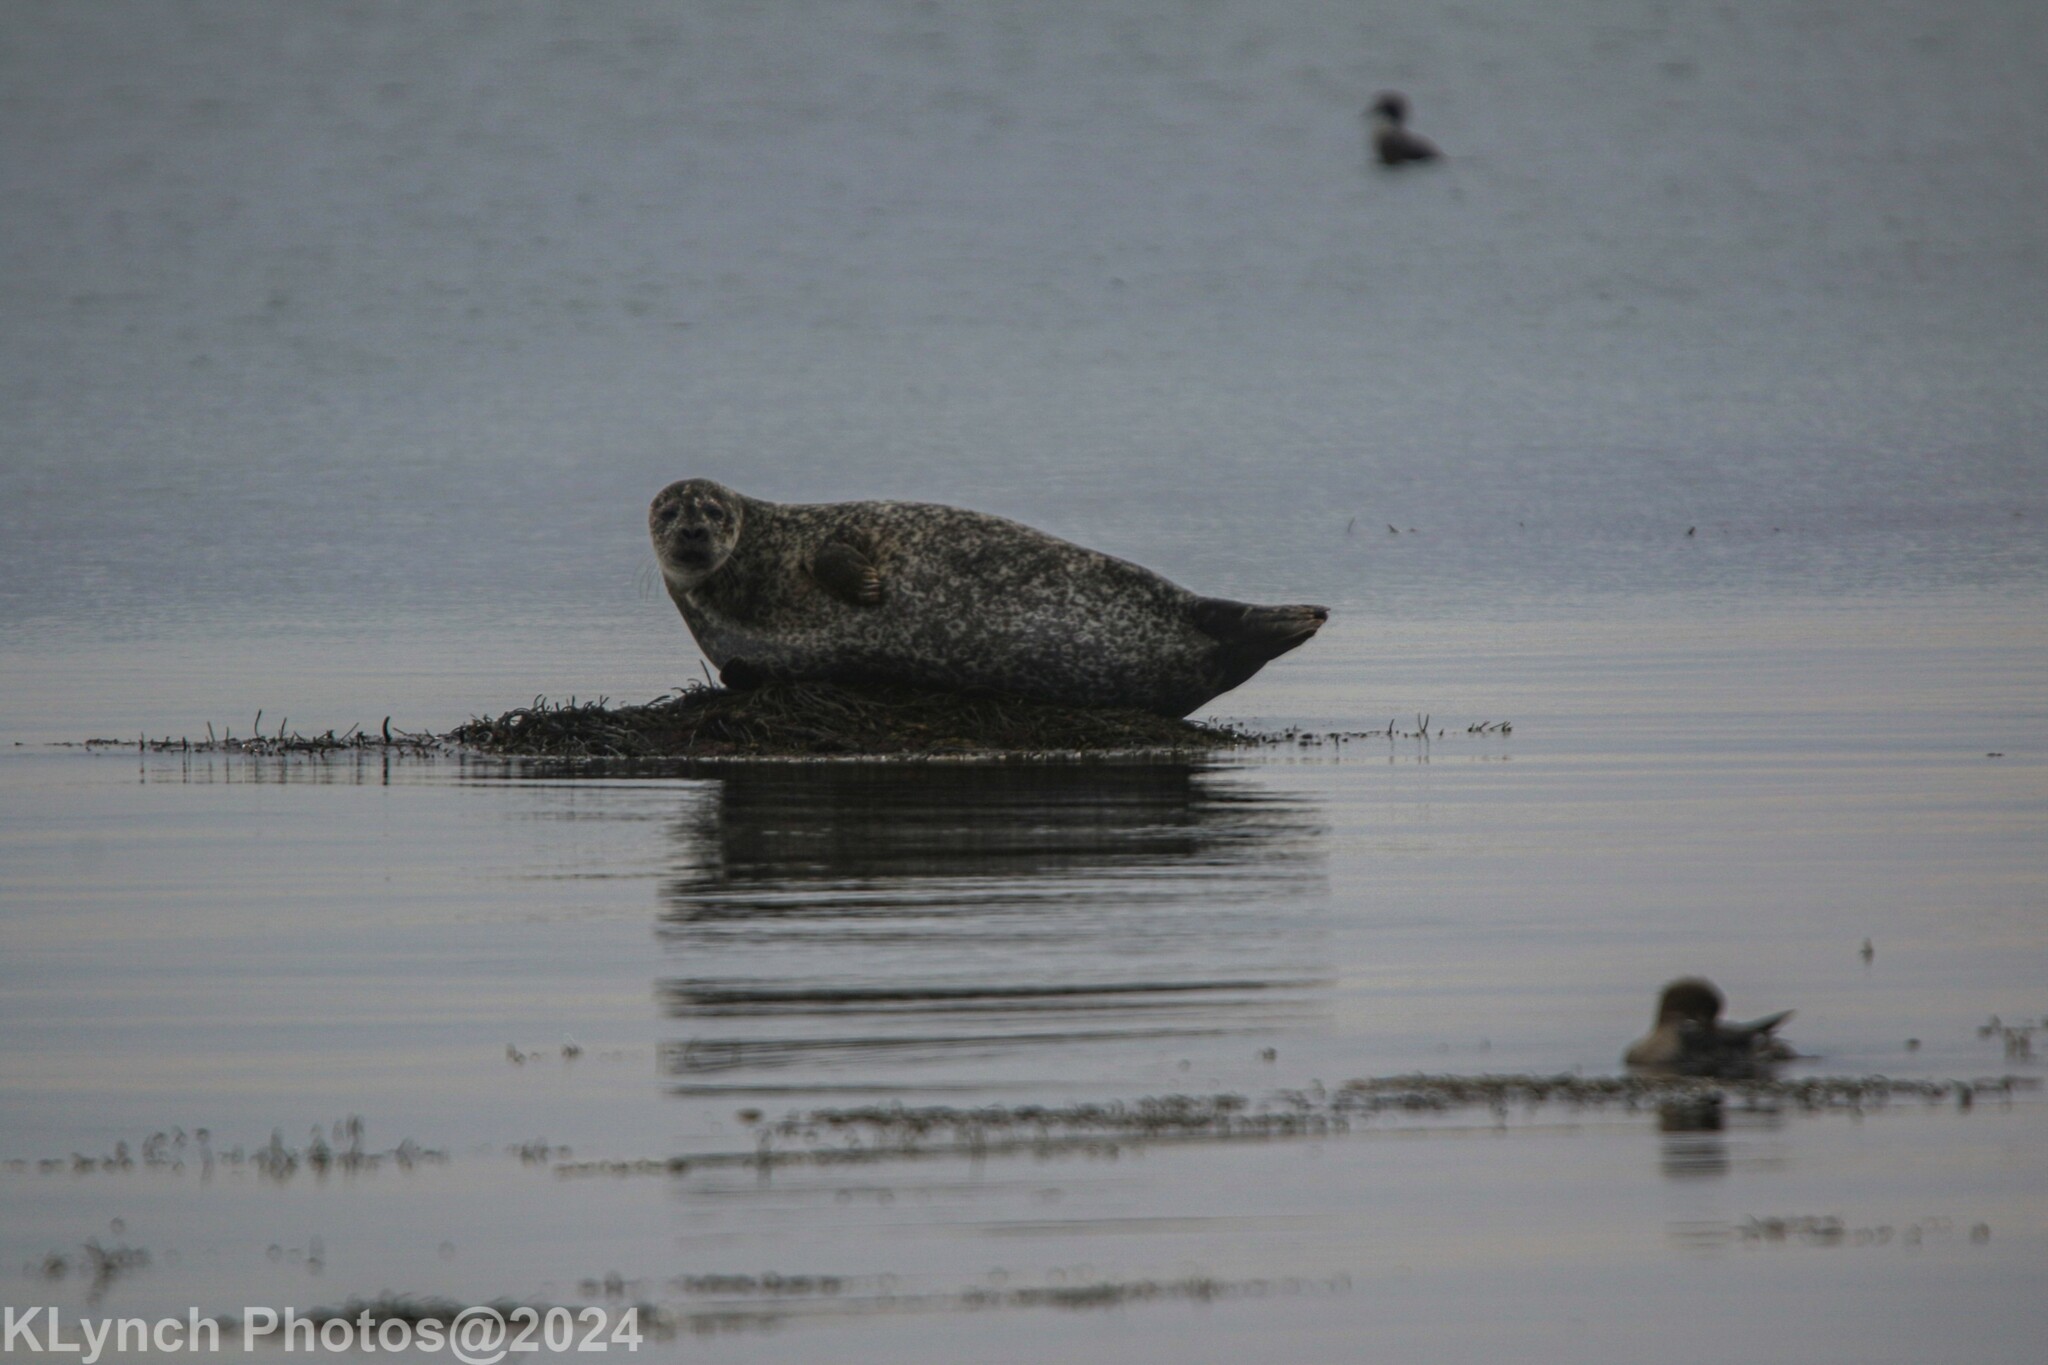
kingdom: Animalia
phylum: Chordata
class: Mammalia
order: Carnivora
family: Phocidae
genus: Phoca
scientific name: Phoca vitulina
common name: Harbor seal
